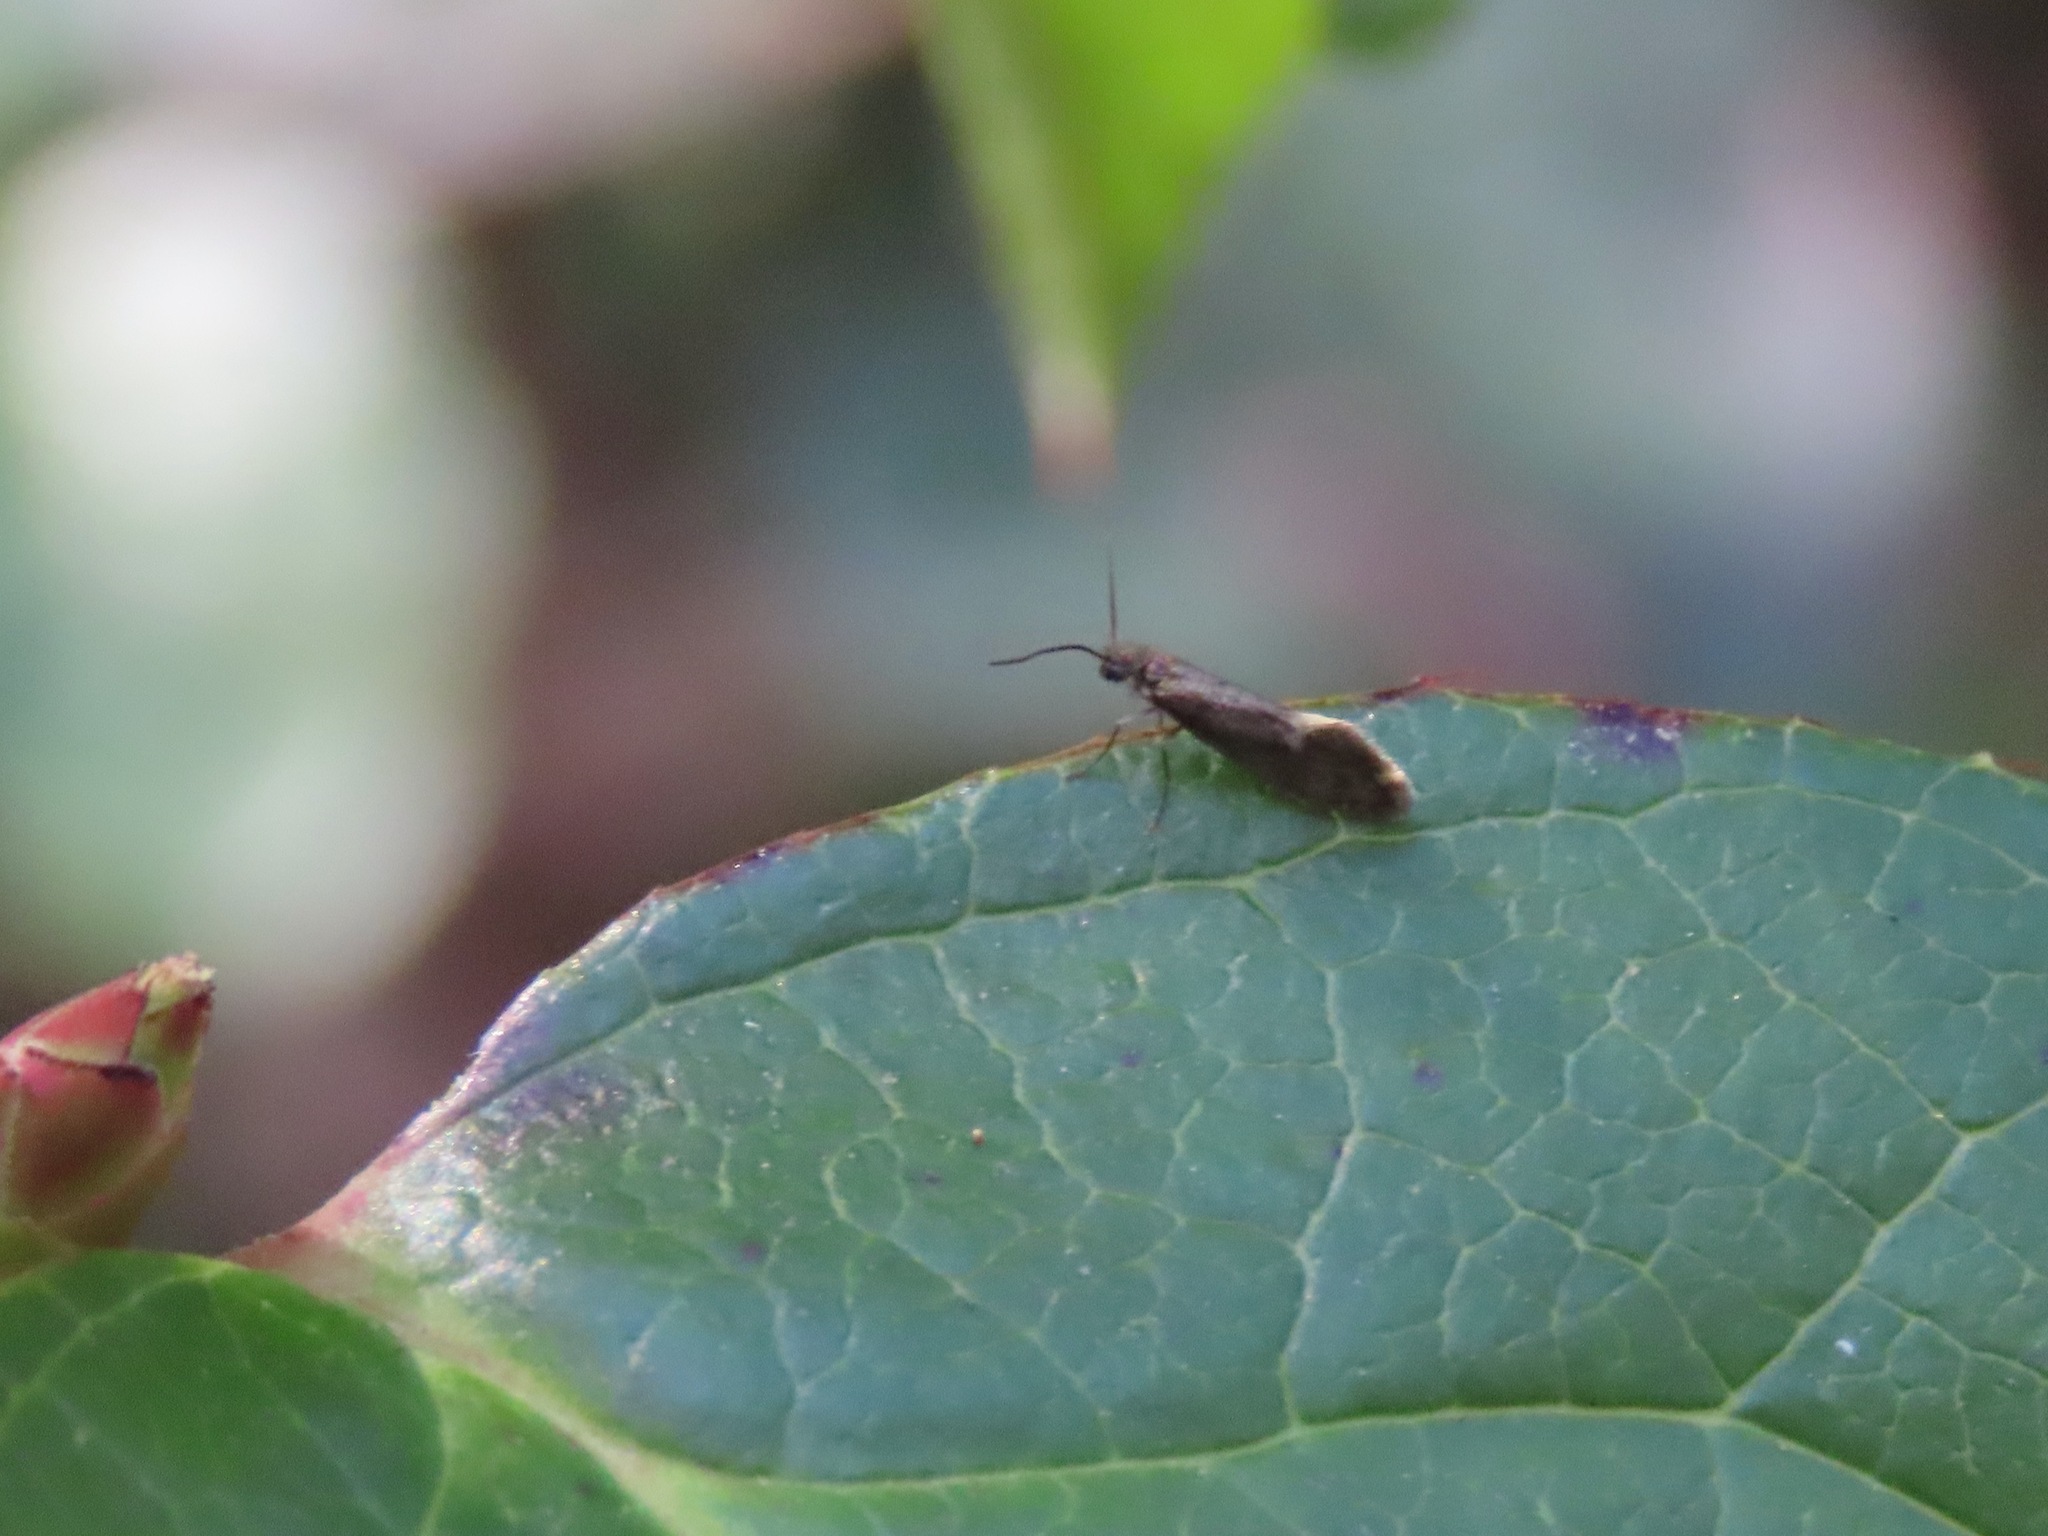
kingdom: Animalia
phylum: Arthropoda
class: Insecta
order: Lepidoptera
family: Eriocraniidae
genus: Eriocrania
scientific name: Eriocrania semipurpurella
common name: Early purple
